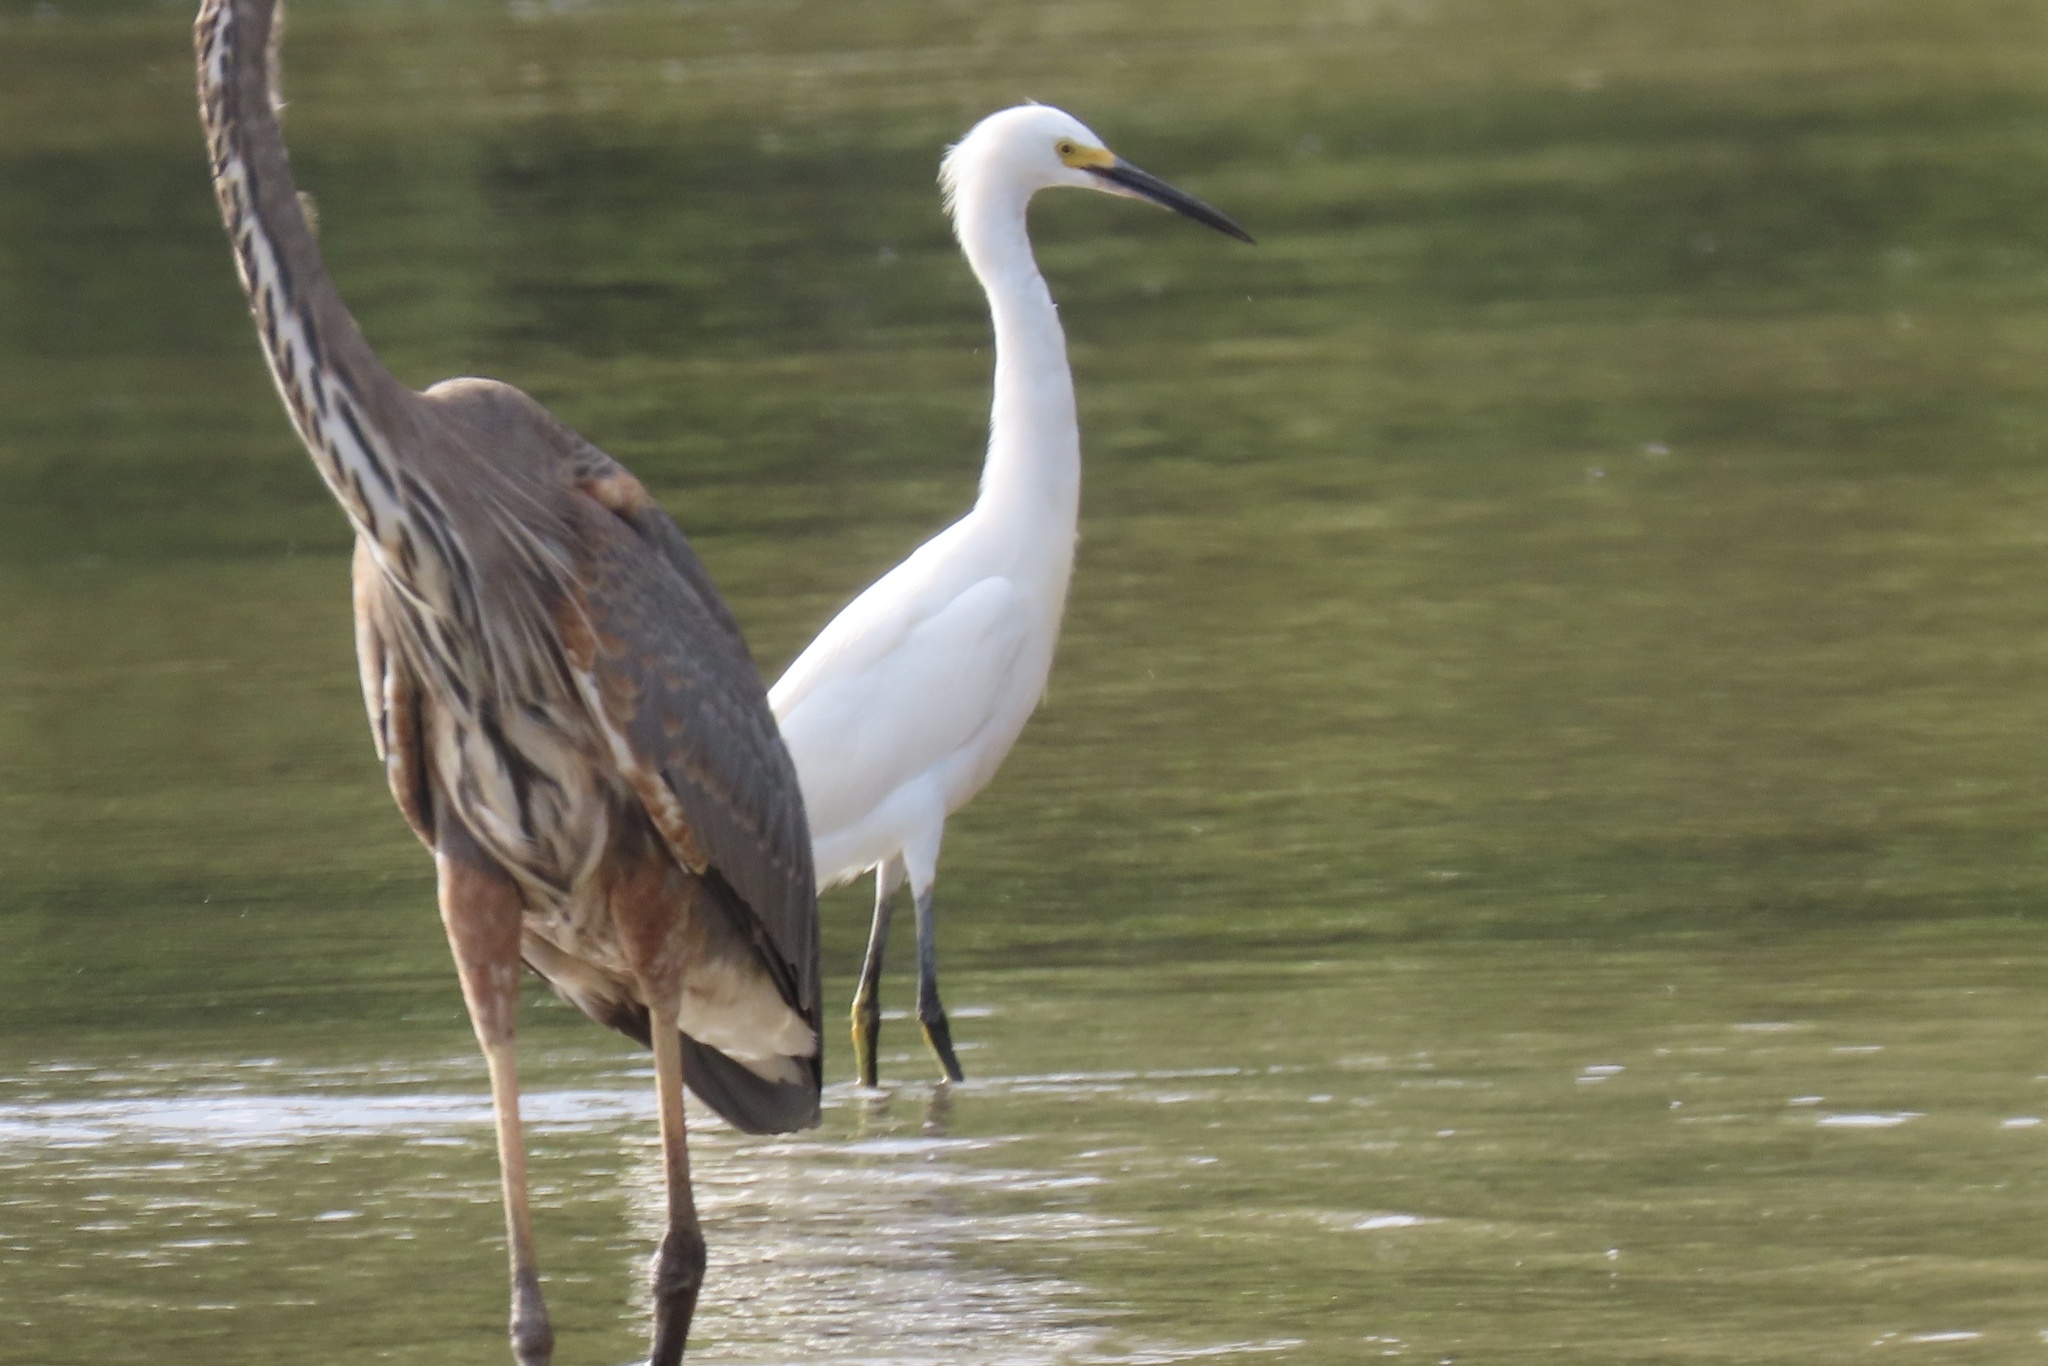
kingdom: Animalia
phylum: Chordata
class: Aves
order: Pelecaniformes
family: Ardeidae
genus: Egretta
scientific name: Egretta thula
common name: Snowy egret
